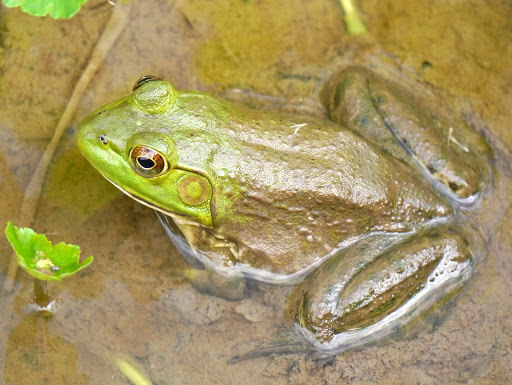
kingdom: Animalia
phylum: Chordata
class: Amphibia
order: Anura
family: Ranidae
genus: Lithobates
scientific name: Lithobates catesbeianus
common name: American bullfrog
